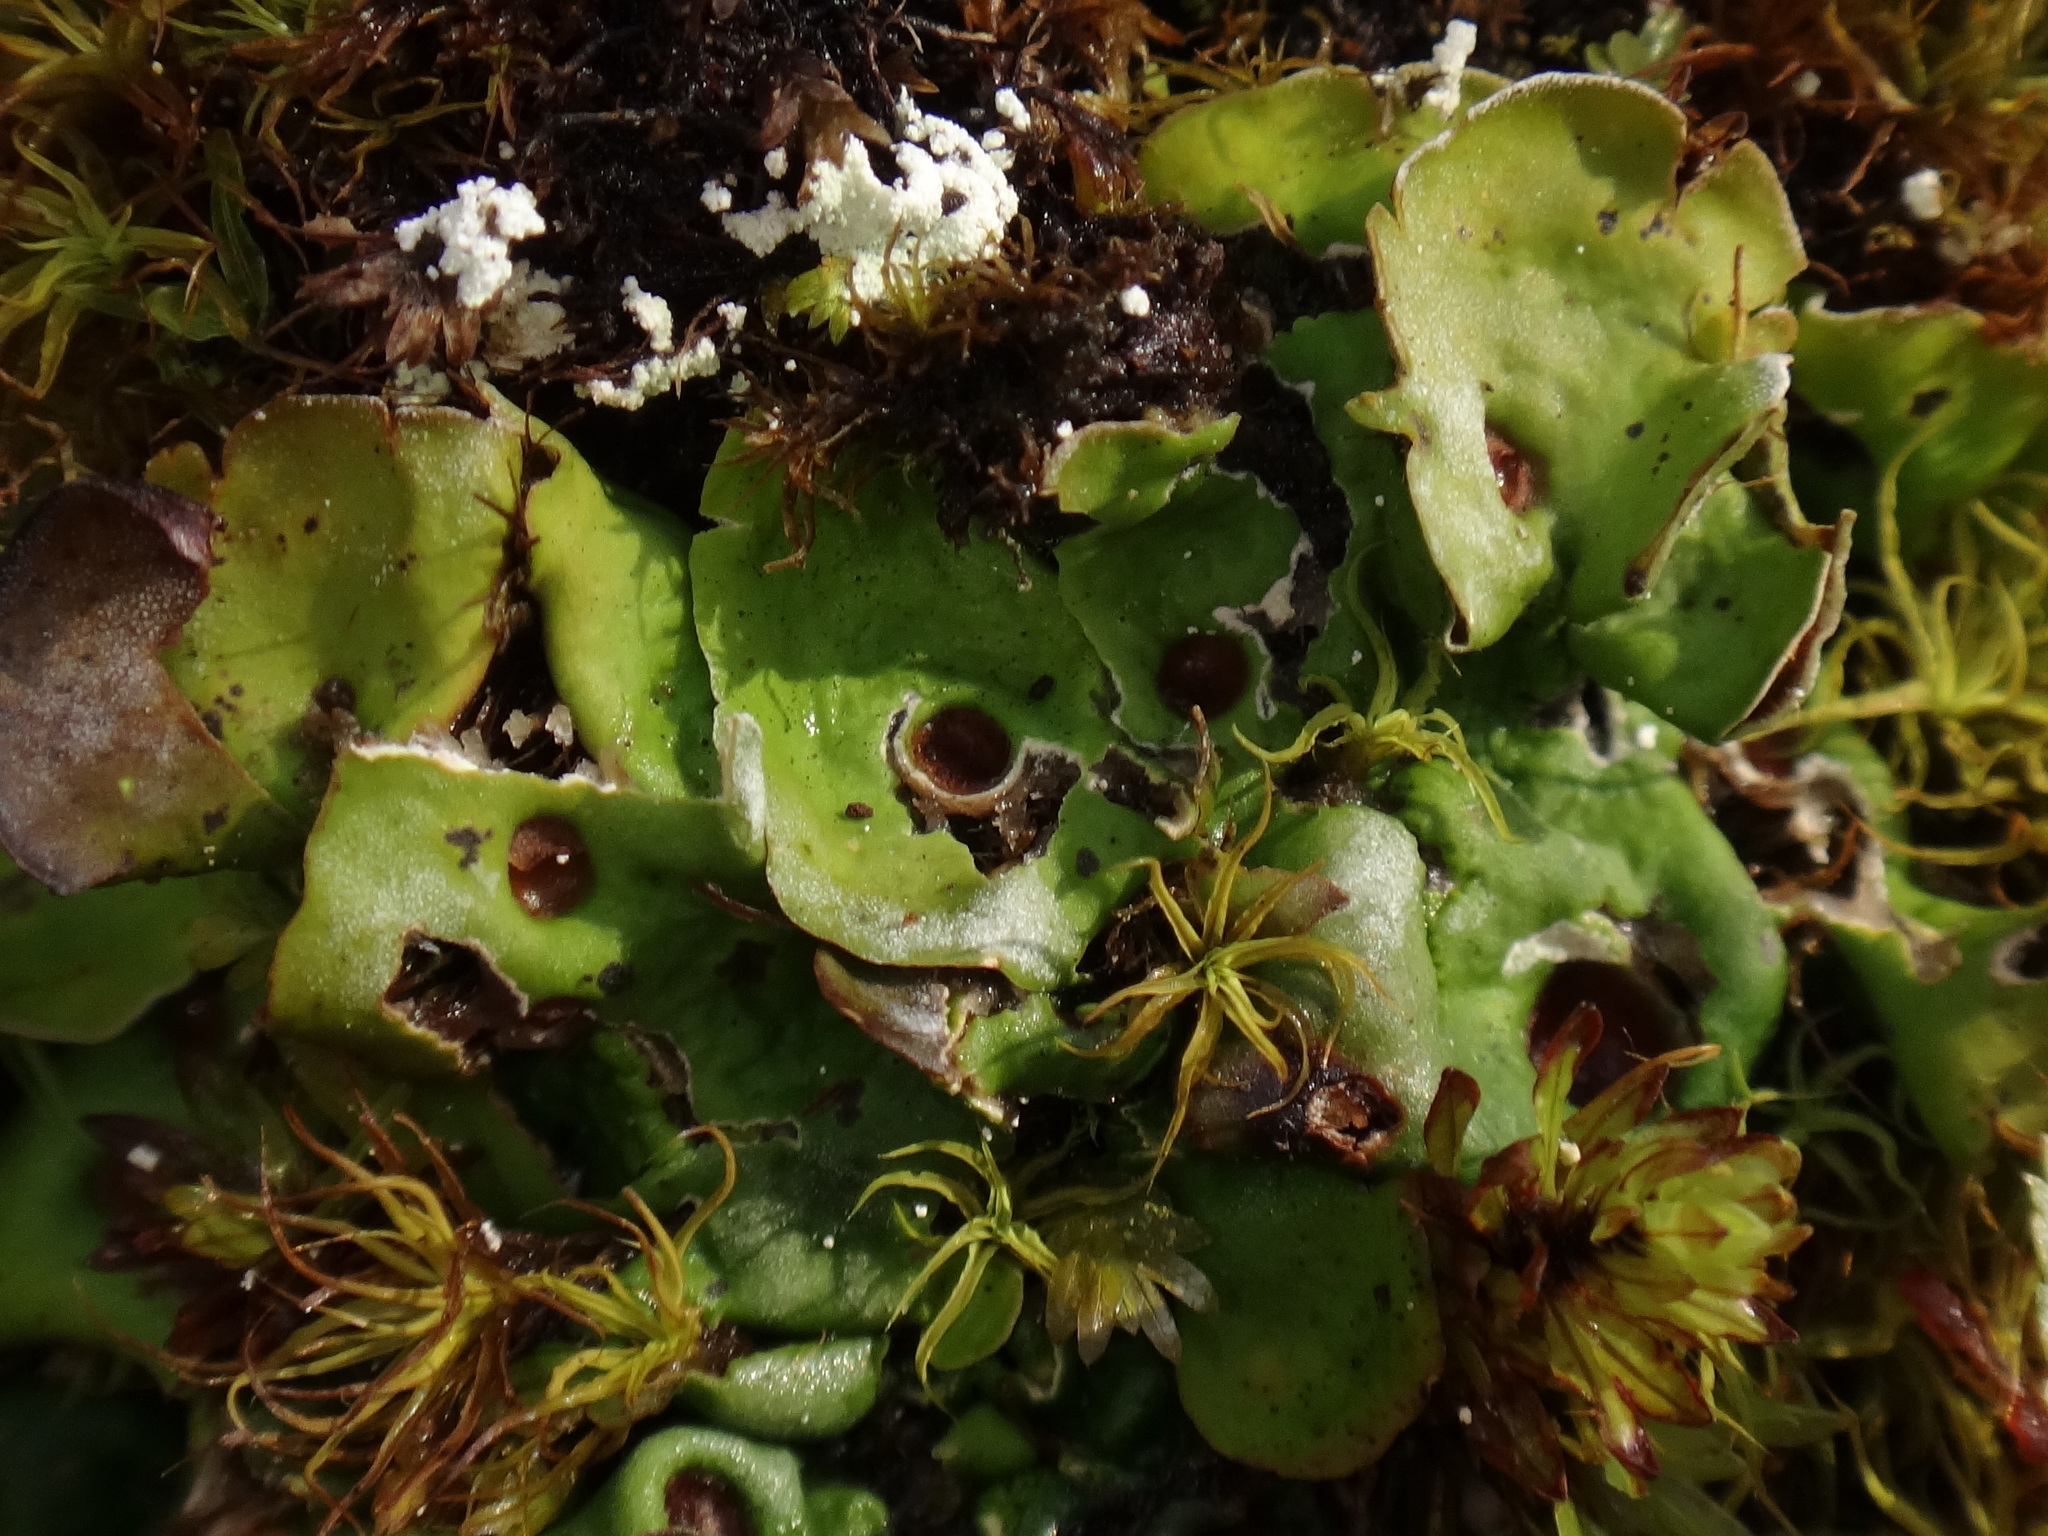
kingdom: Fungi
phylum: Ascomycota
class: Lecanoromycetes
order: Peltigerales
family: Peltigeraceae
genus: Solorina
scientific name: Solorina saccata
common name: Common chocolate chip lichen
